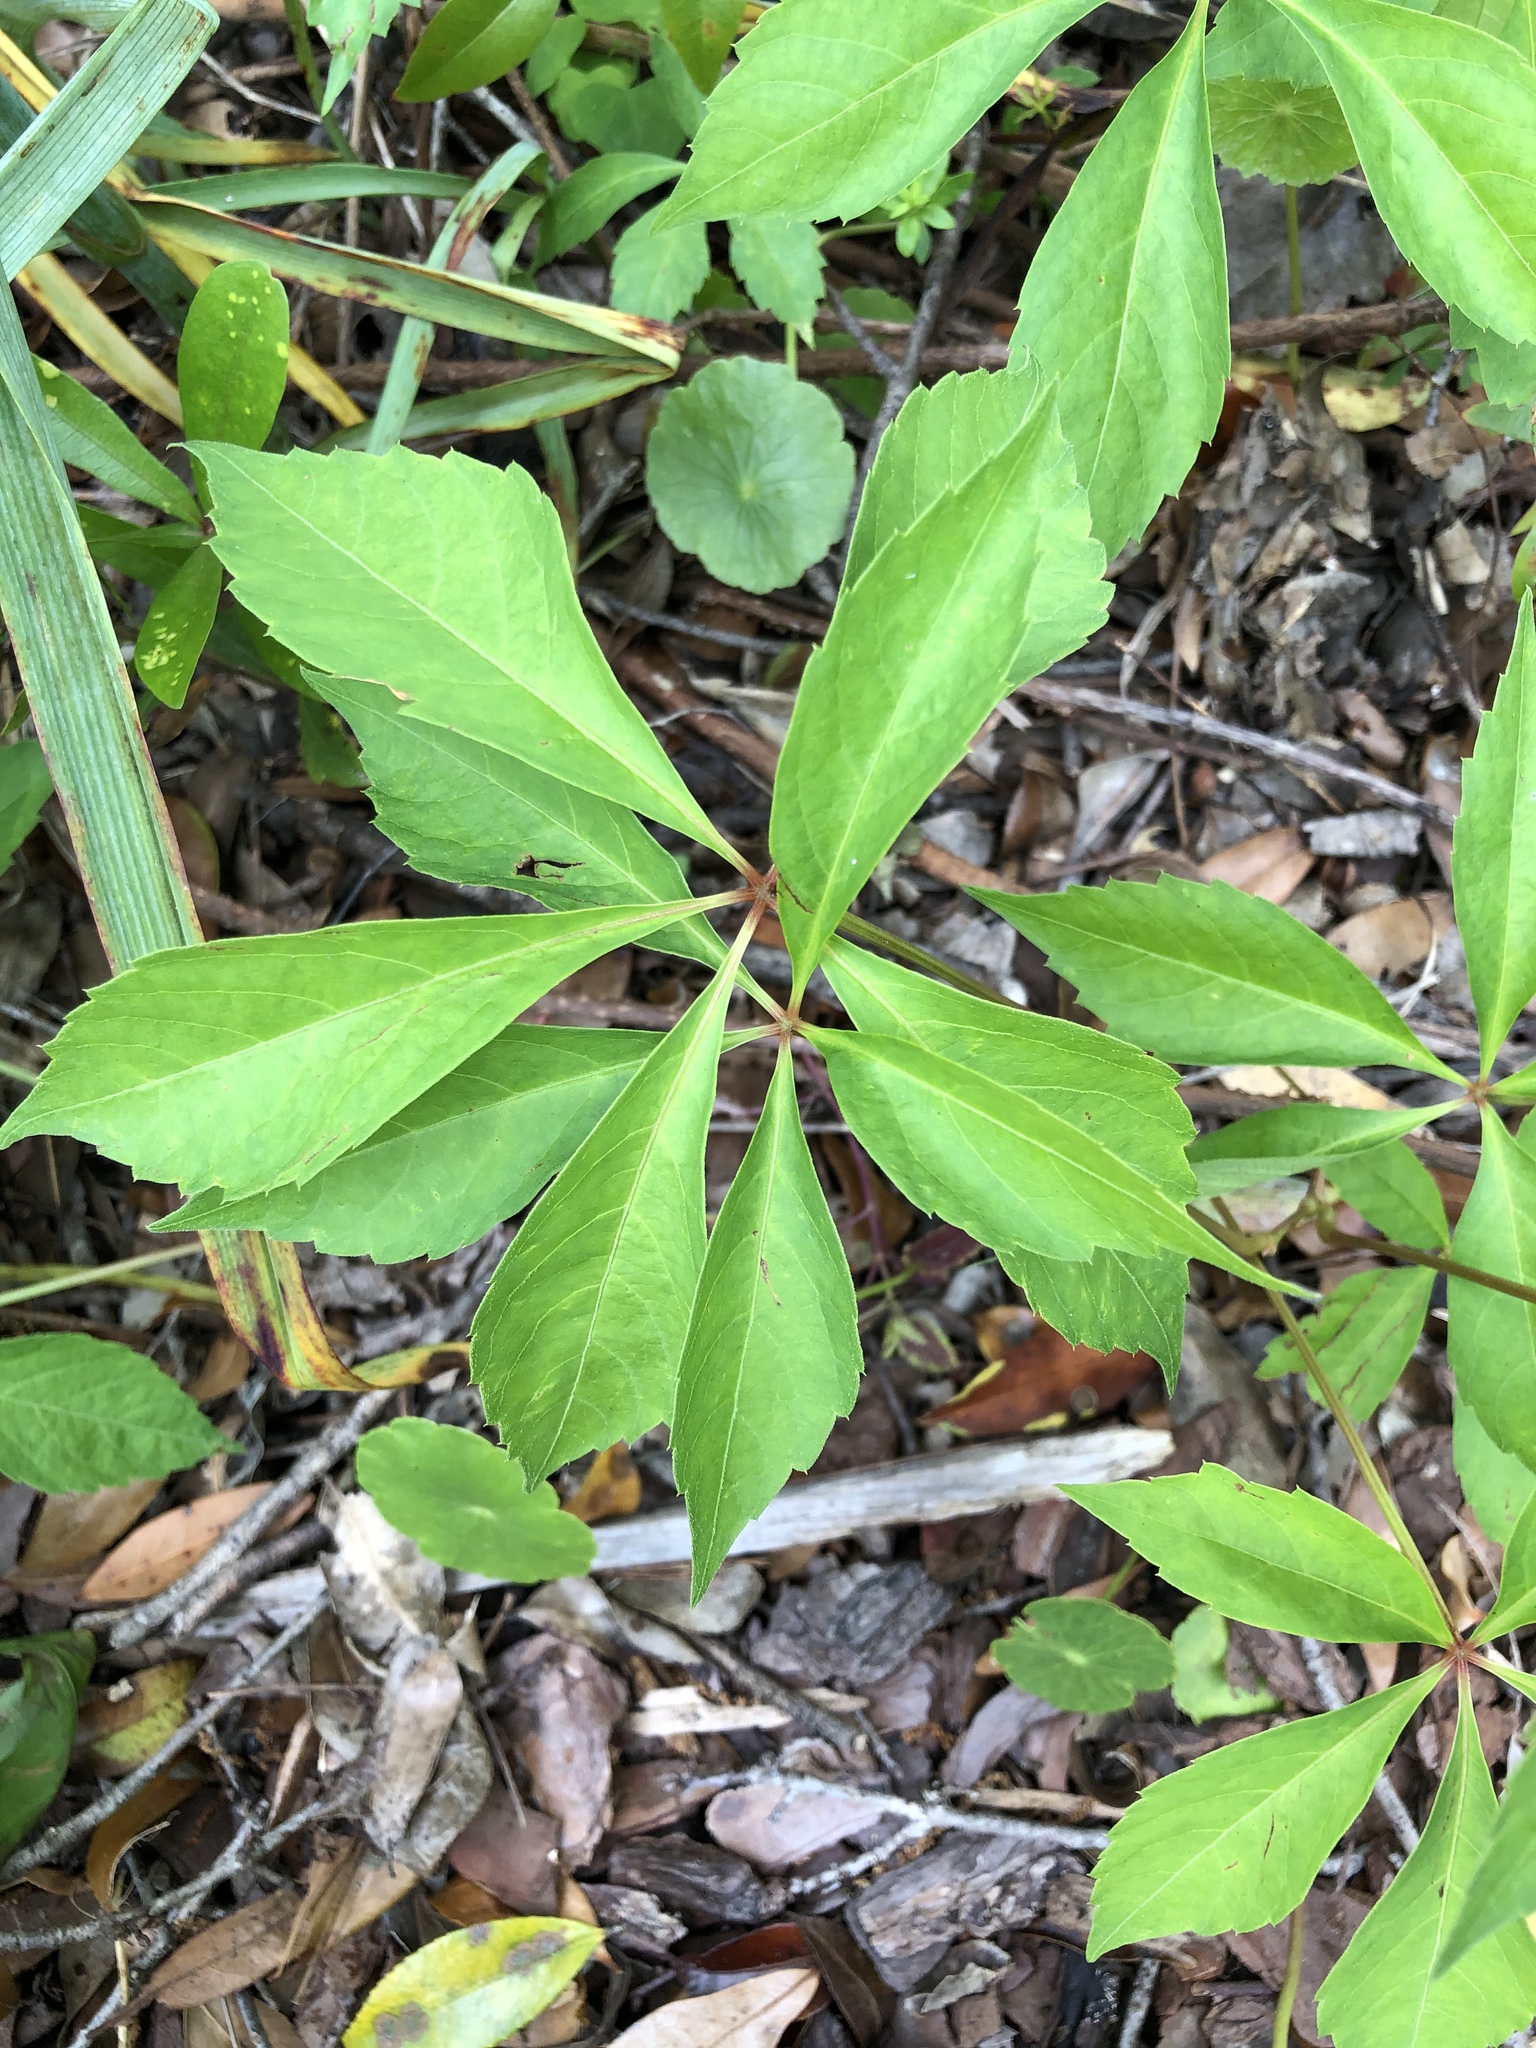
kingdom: Plantae
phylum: Tracheophyta
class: Magnoliopsida
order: Vitales
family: Vitaceae
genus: Parthenocissus
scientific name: Parthenocissus quinquefolia
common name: Virginia-creeper
